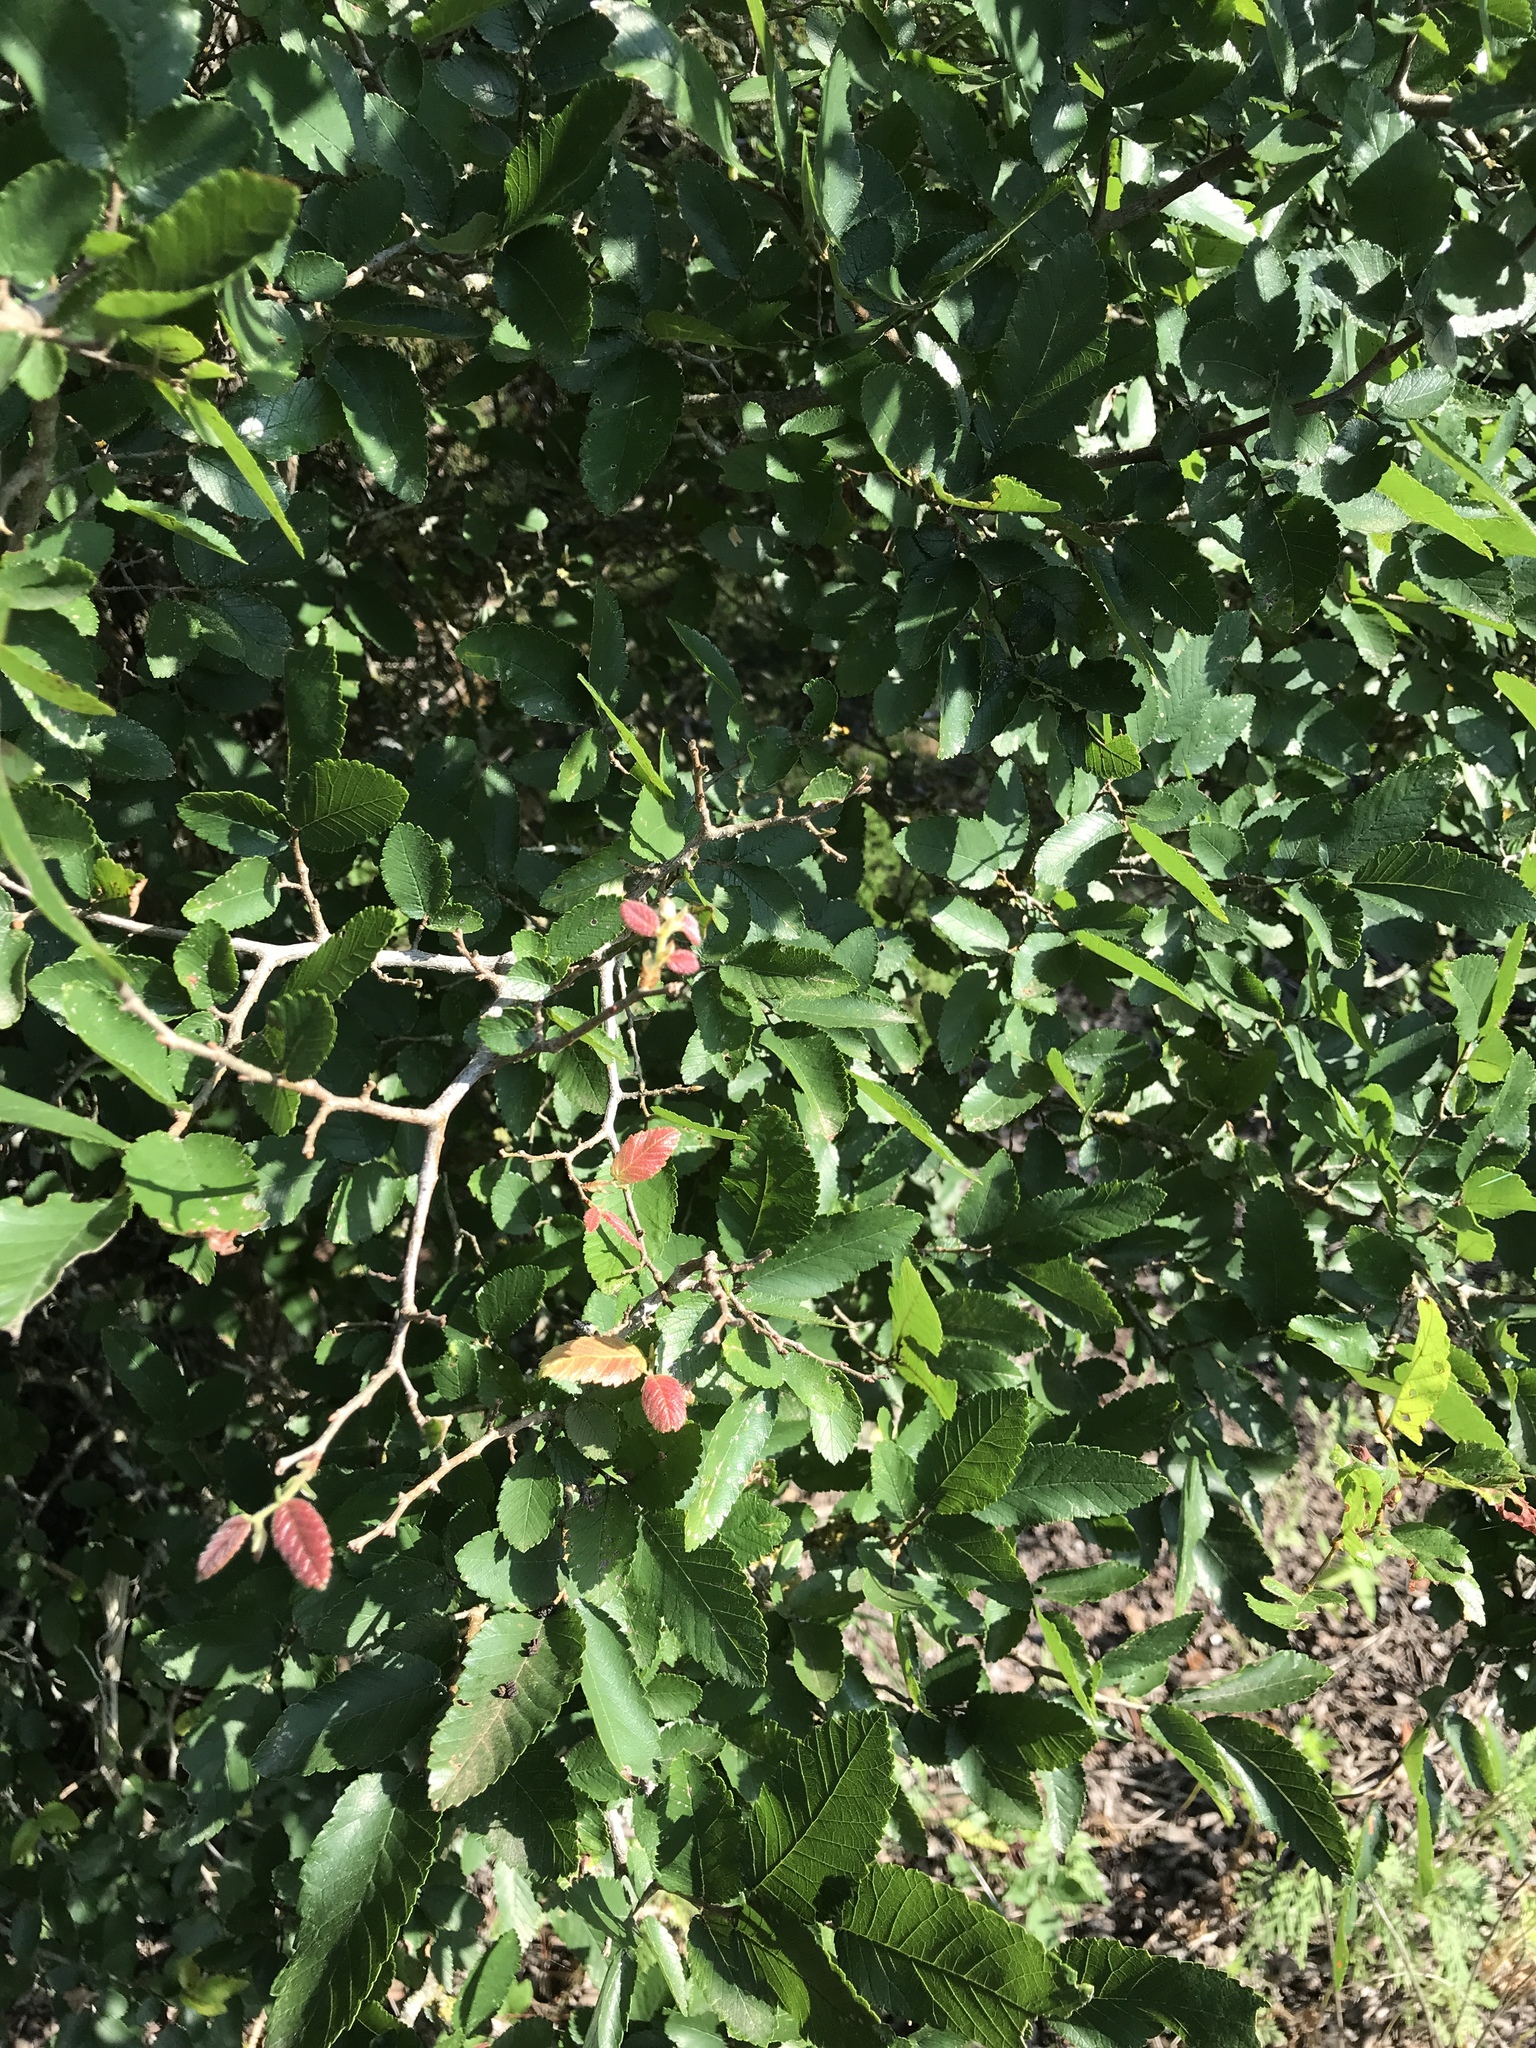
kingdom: Plantae
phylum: Tracheophyta
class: Magnoliopsida
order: Rosales
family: Ulmaceae
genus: Ulmus
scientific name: Ulmus crassifolia
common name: Basket elm
